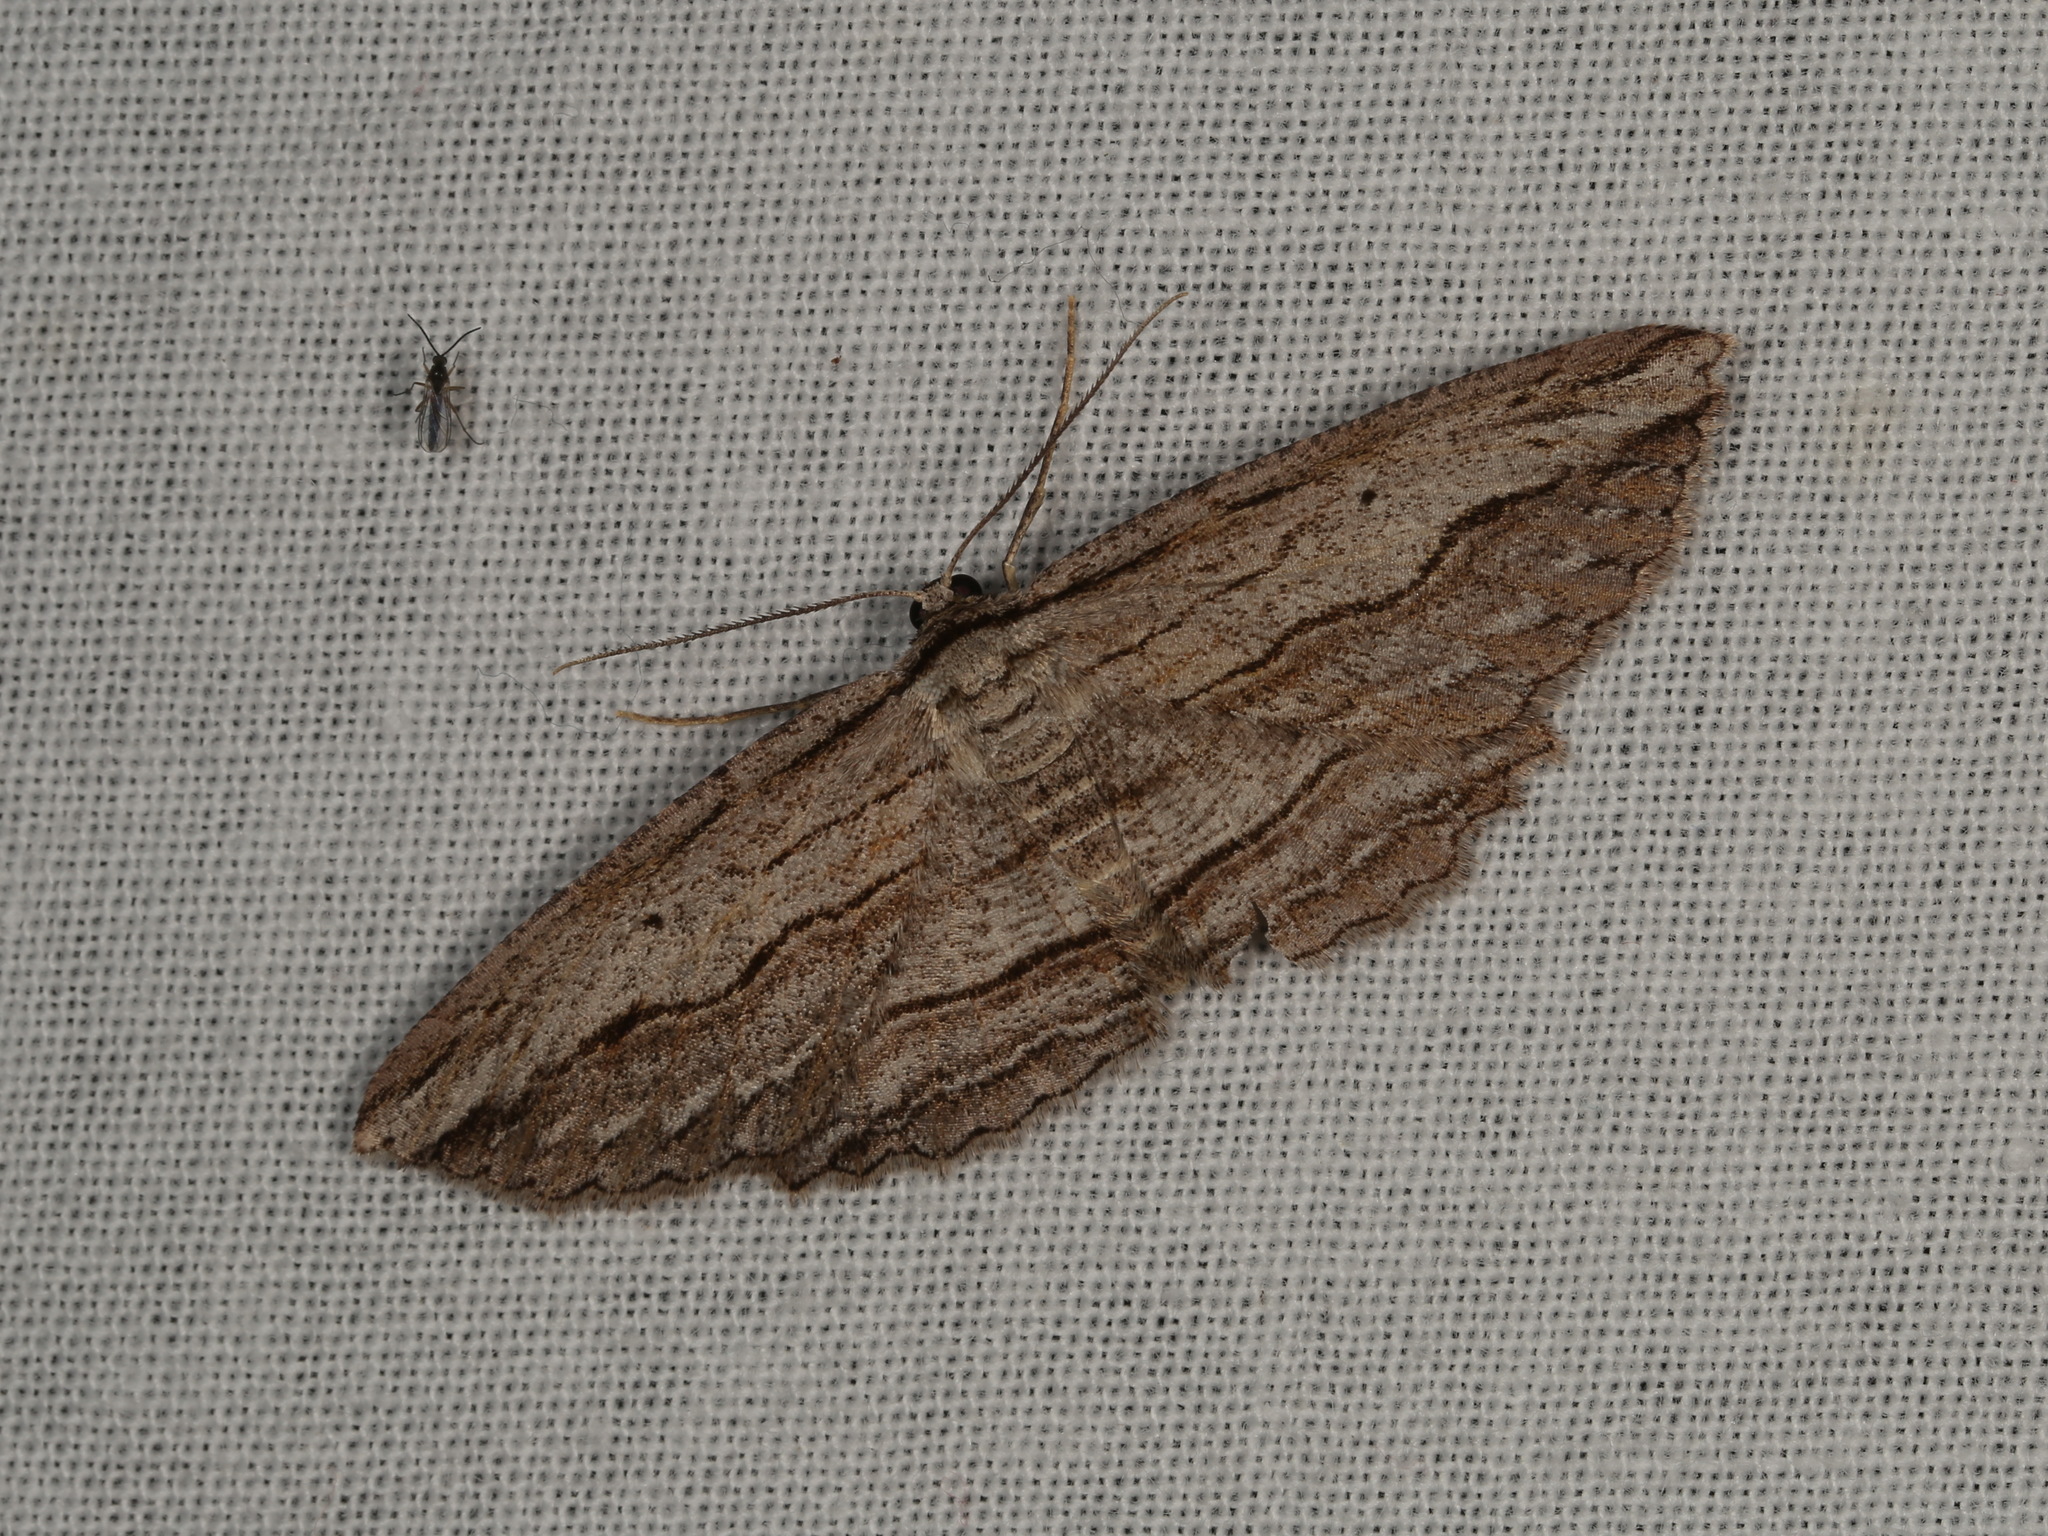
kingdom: Animalia
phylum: Arthropoda
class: Insecta
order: Lepidoptera
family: Geometridae
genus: Euphronarcha
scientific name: Euphronarcha luxaria
